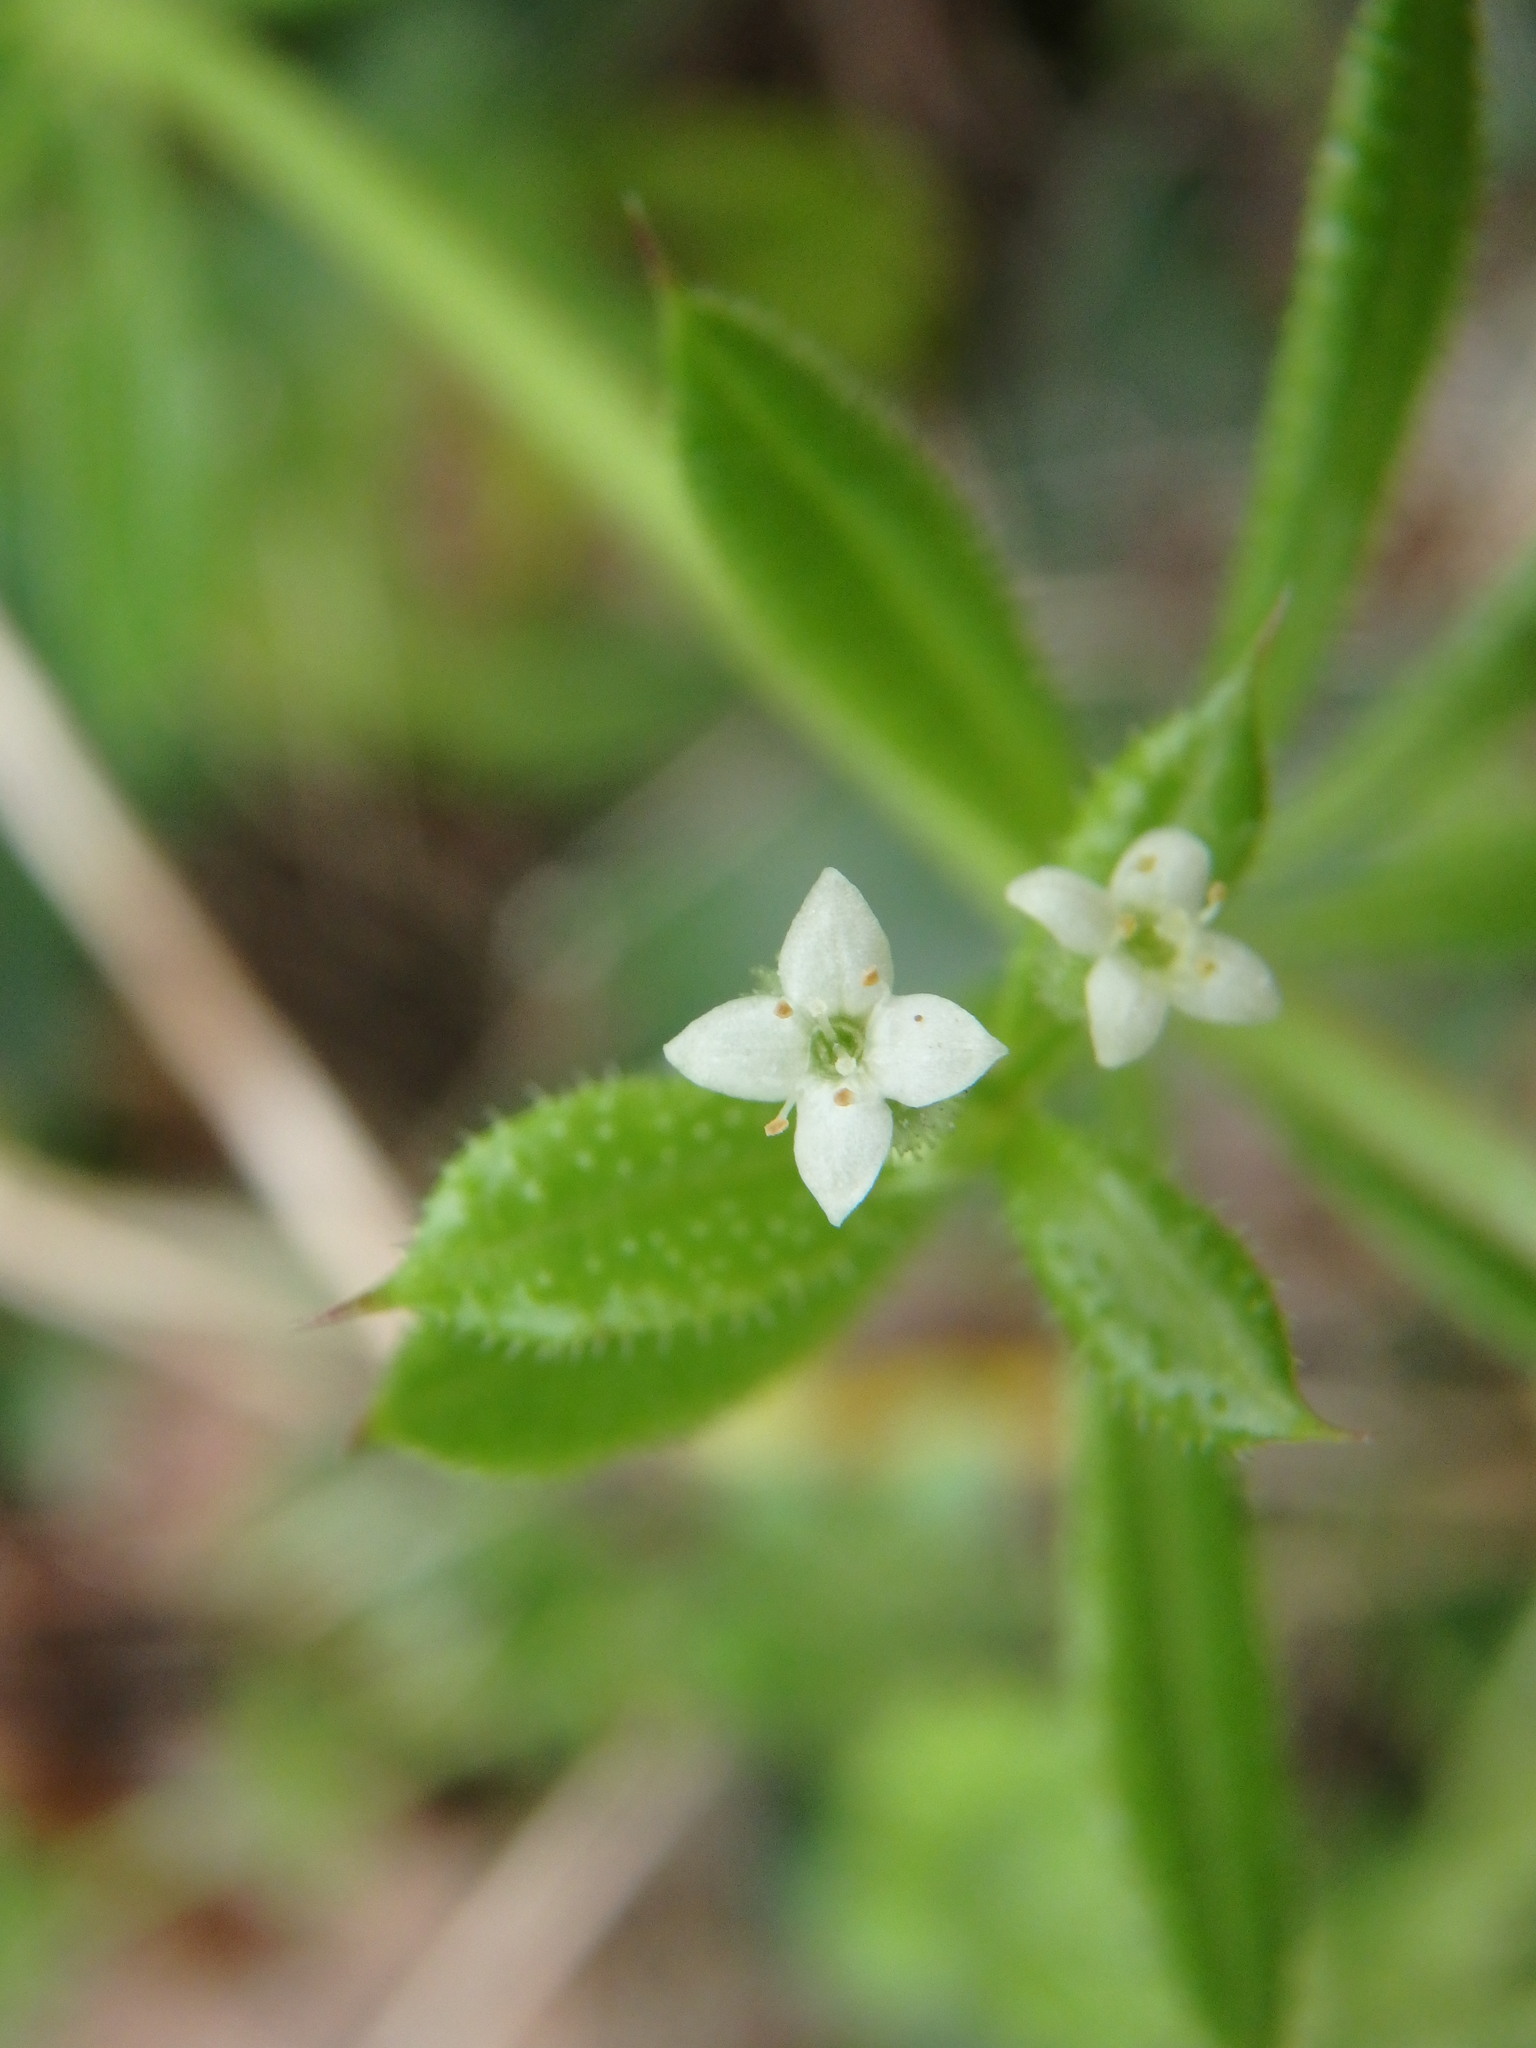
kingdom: Plantae
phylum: Tracheophyta
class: Magnoliopsida
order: Gentianales
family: Rubiaceae
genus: Galium
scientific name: Galium aparine
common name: Cleavers
